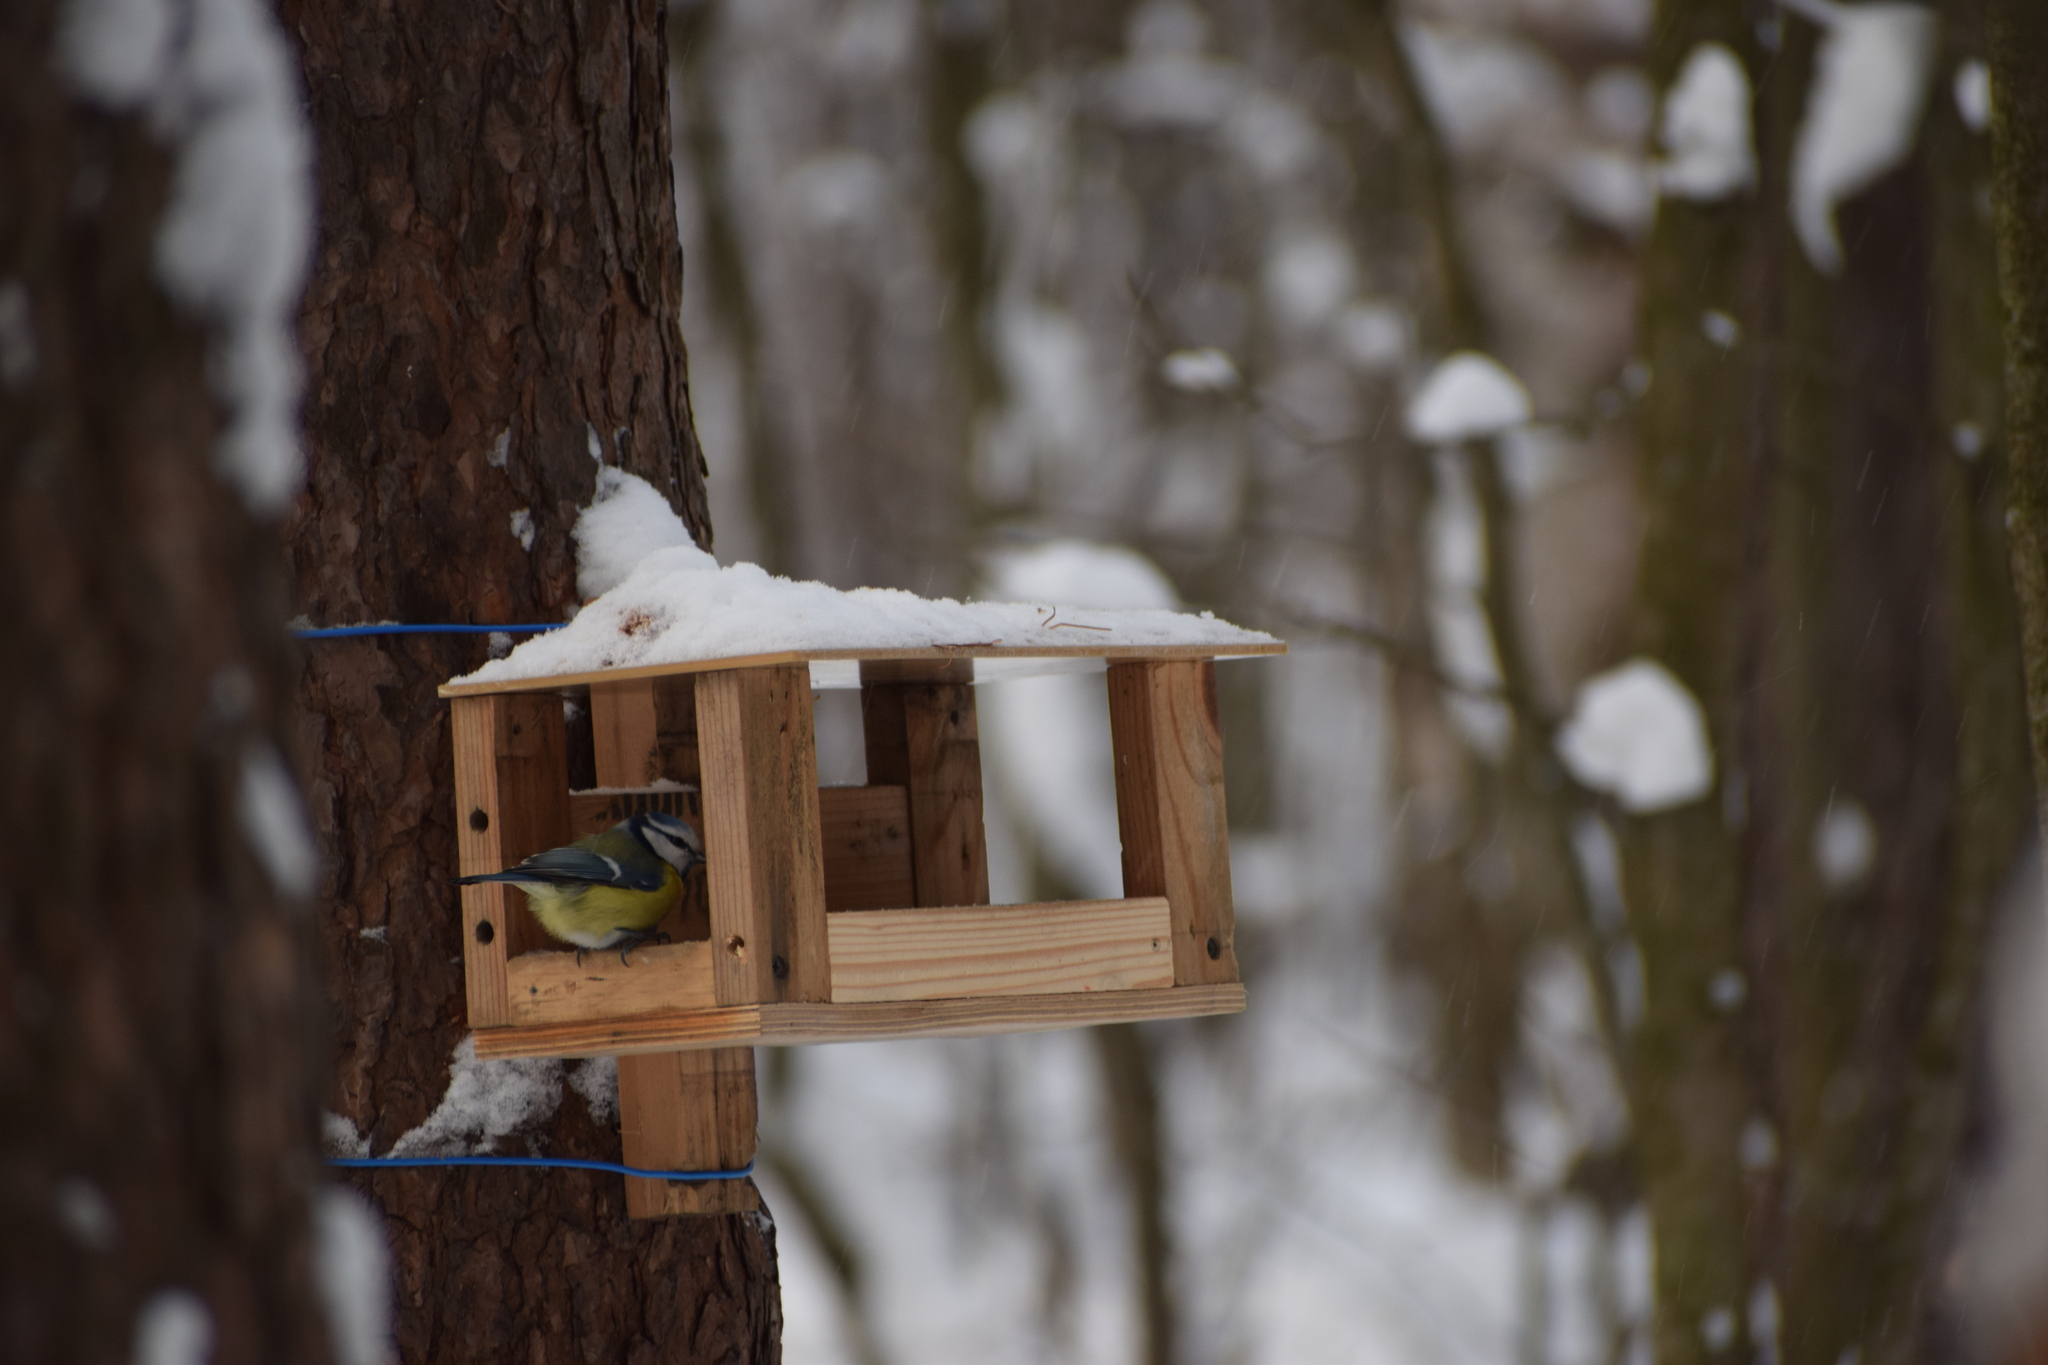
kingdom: Animalia
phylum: Chordata
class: Aves
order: Passeriformes
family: Paridae
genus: Cyanistes
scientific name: Cyanistes caeruleus
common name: Eurasian blue tit
